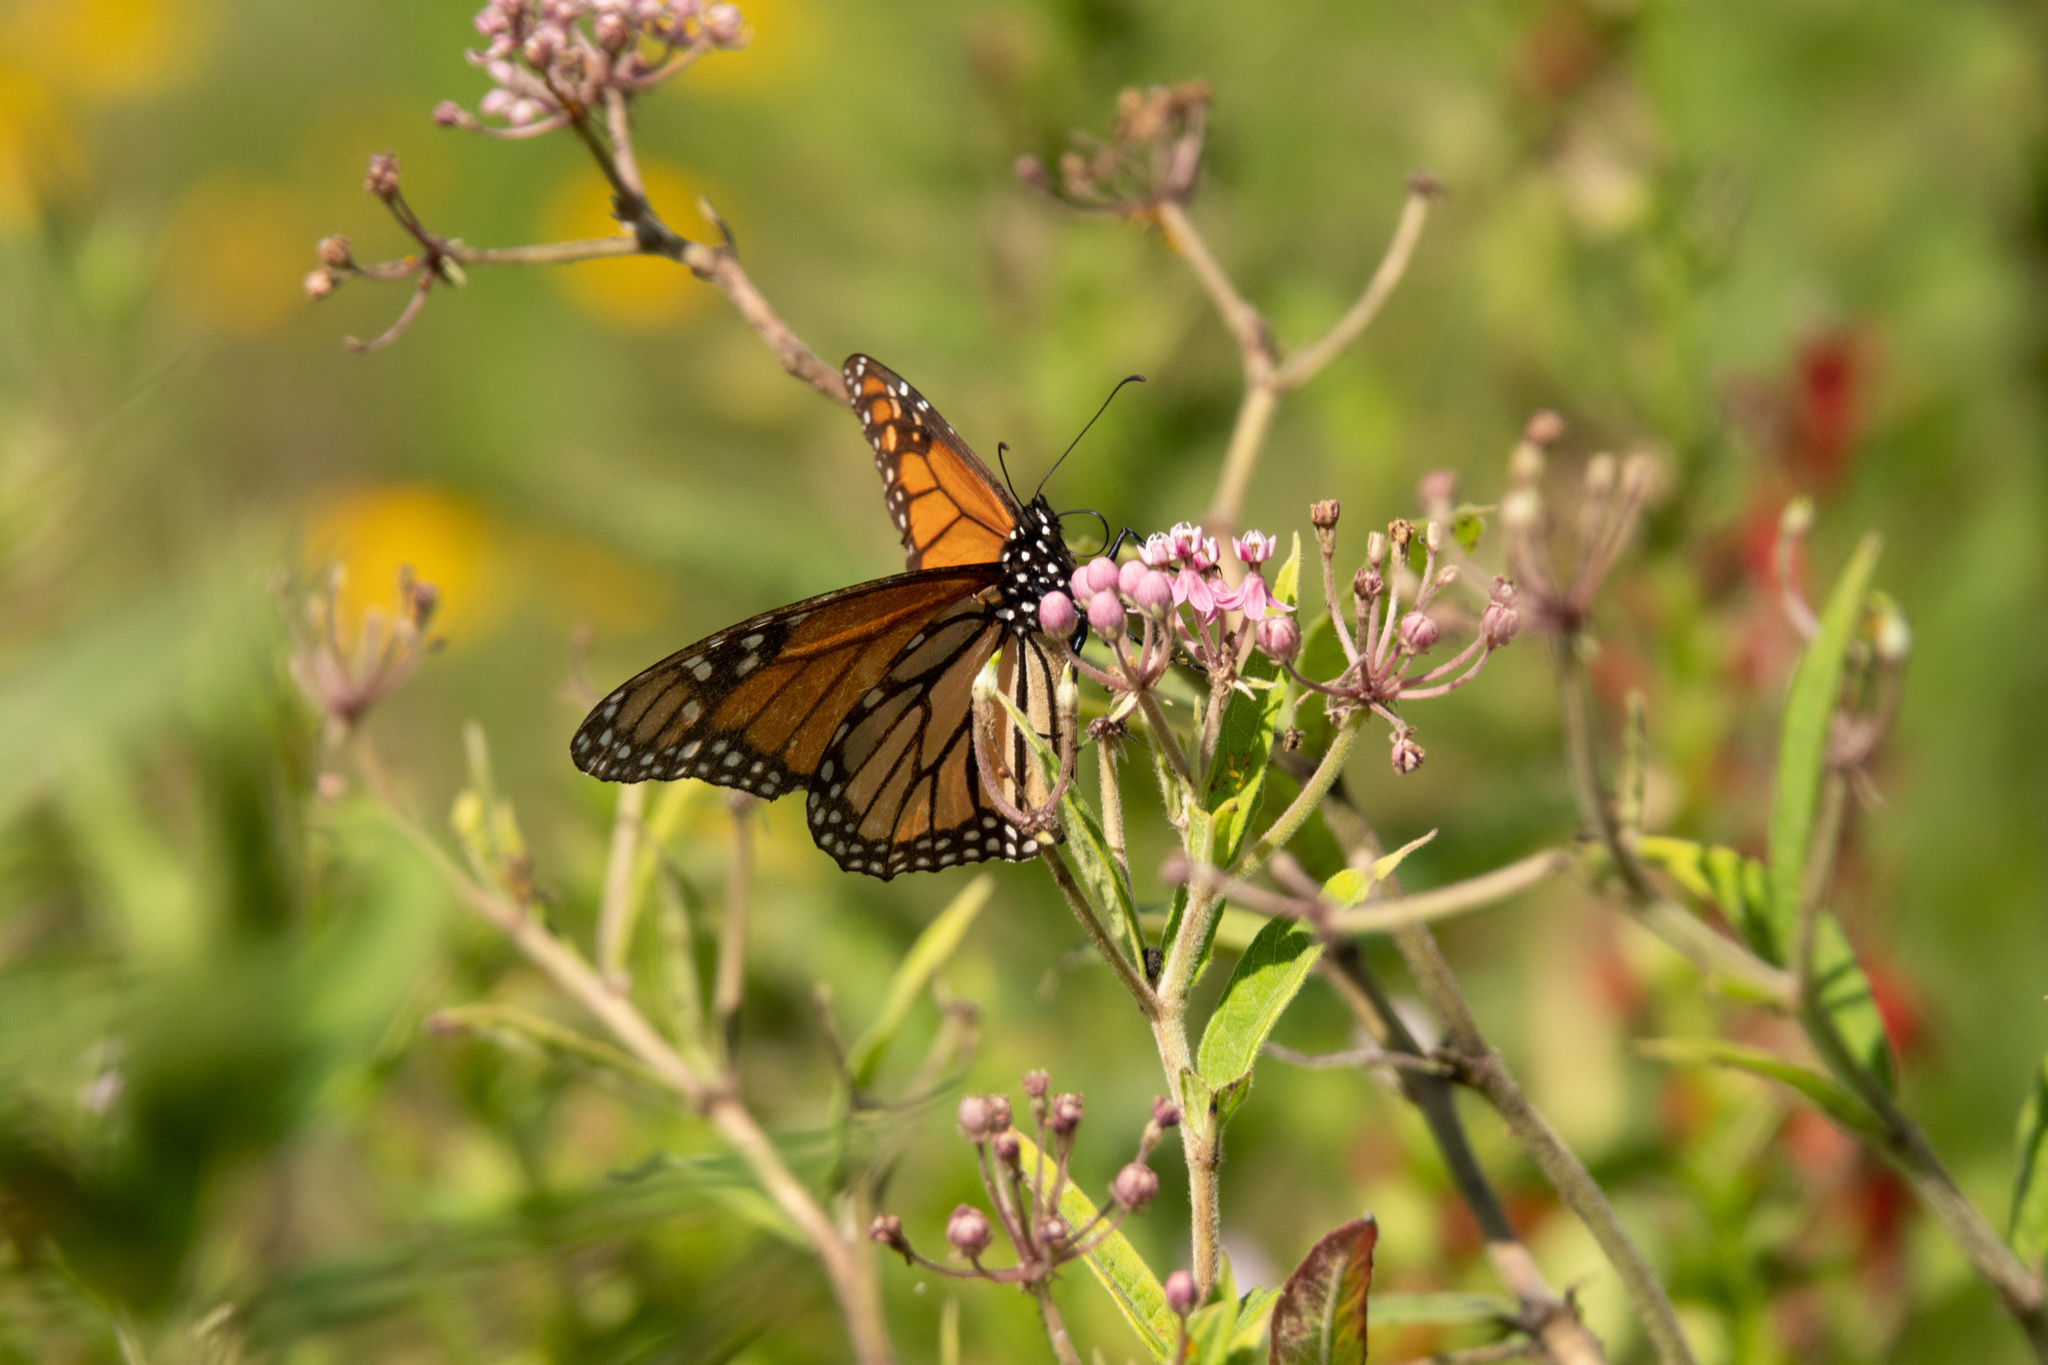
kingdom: Animalia
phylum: Arthropoda
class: Insecta
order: Lepidoptera
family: Nymphalidae
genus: Danaus
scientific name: Danaus plexippus
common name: Monarch
